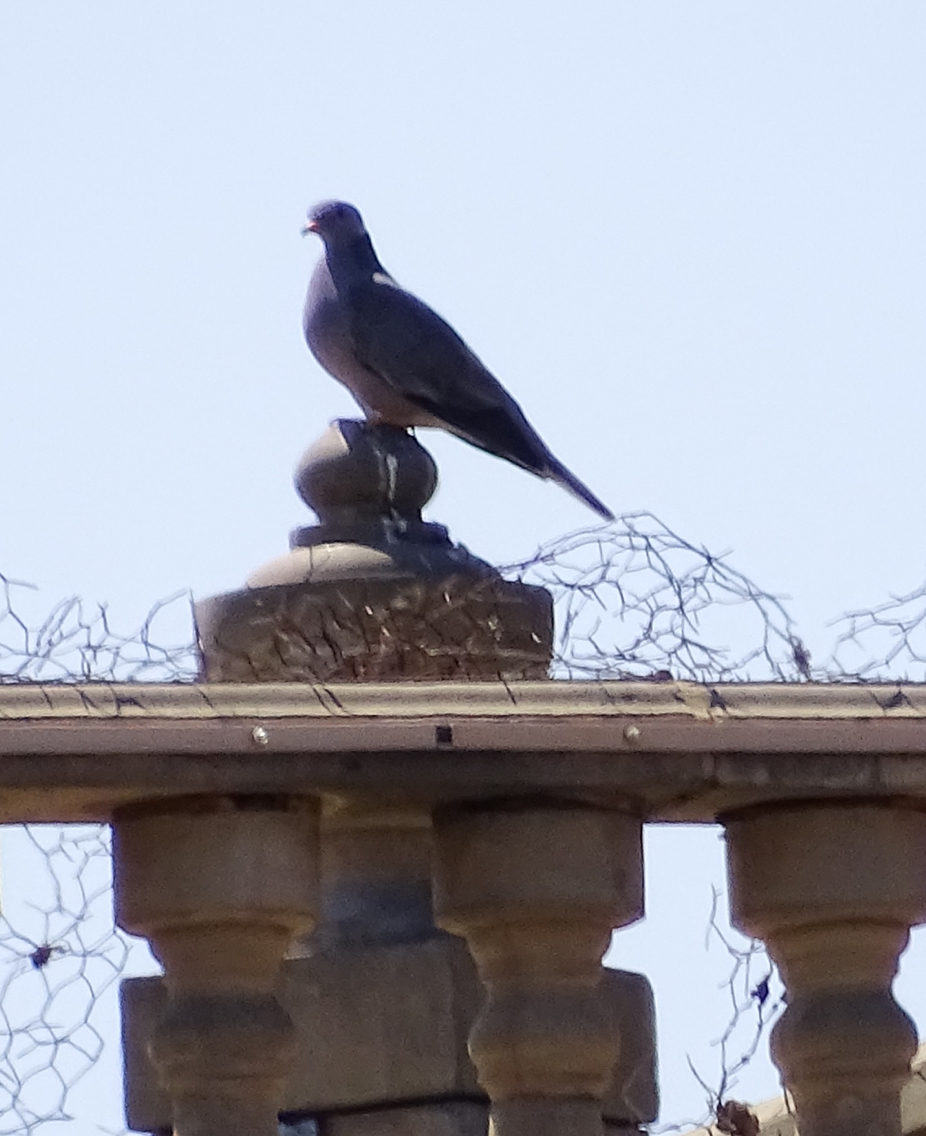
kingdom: Animalia
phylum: Chordata
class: Aves
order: Columbiformes
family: Columbidae
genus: Patagioenas
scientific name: Patagioenas fasciata
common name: Band-tailed pigeon
